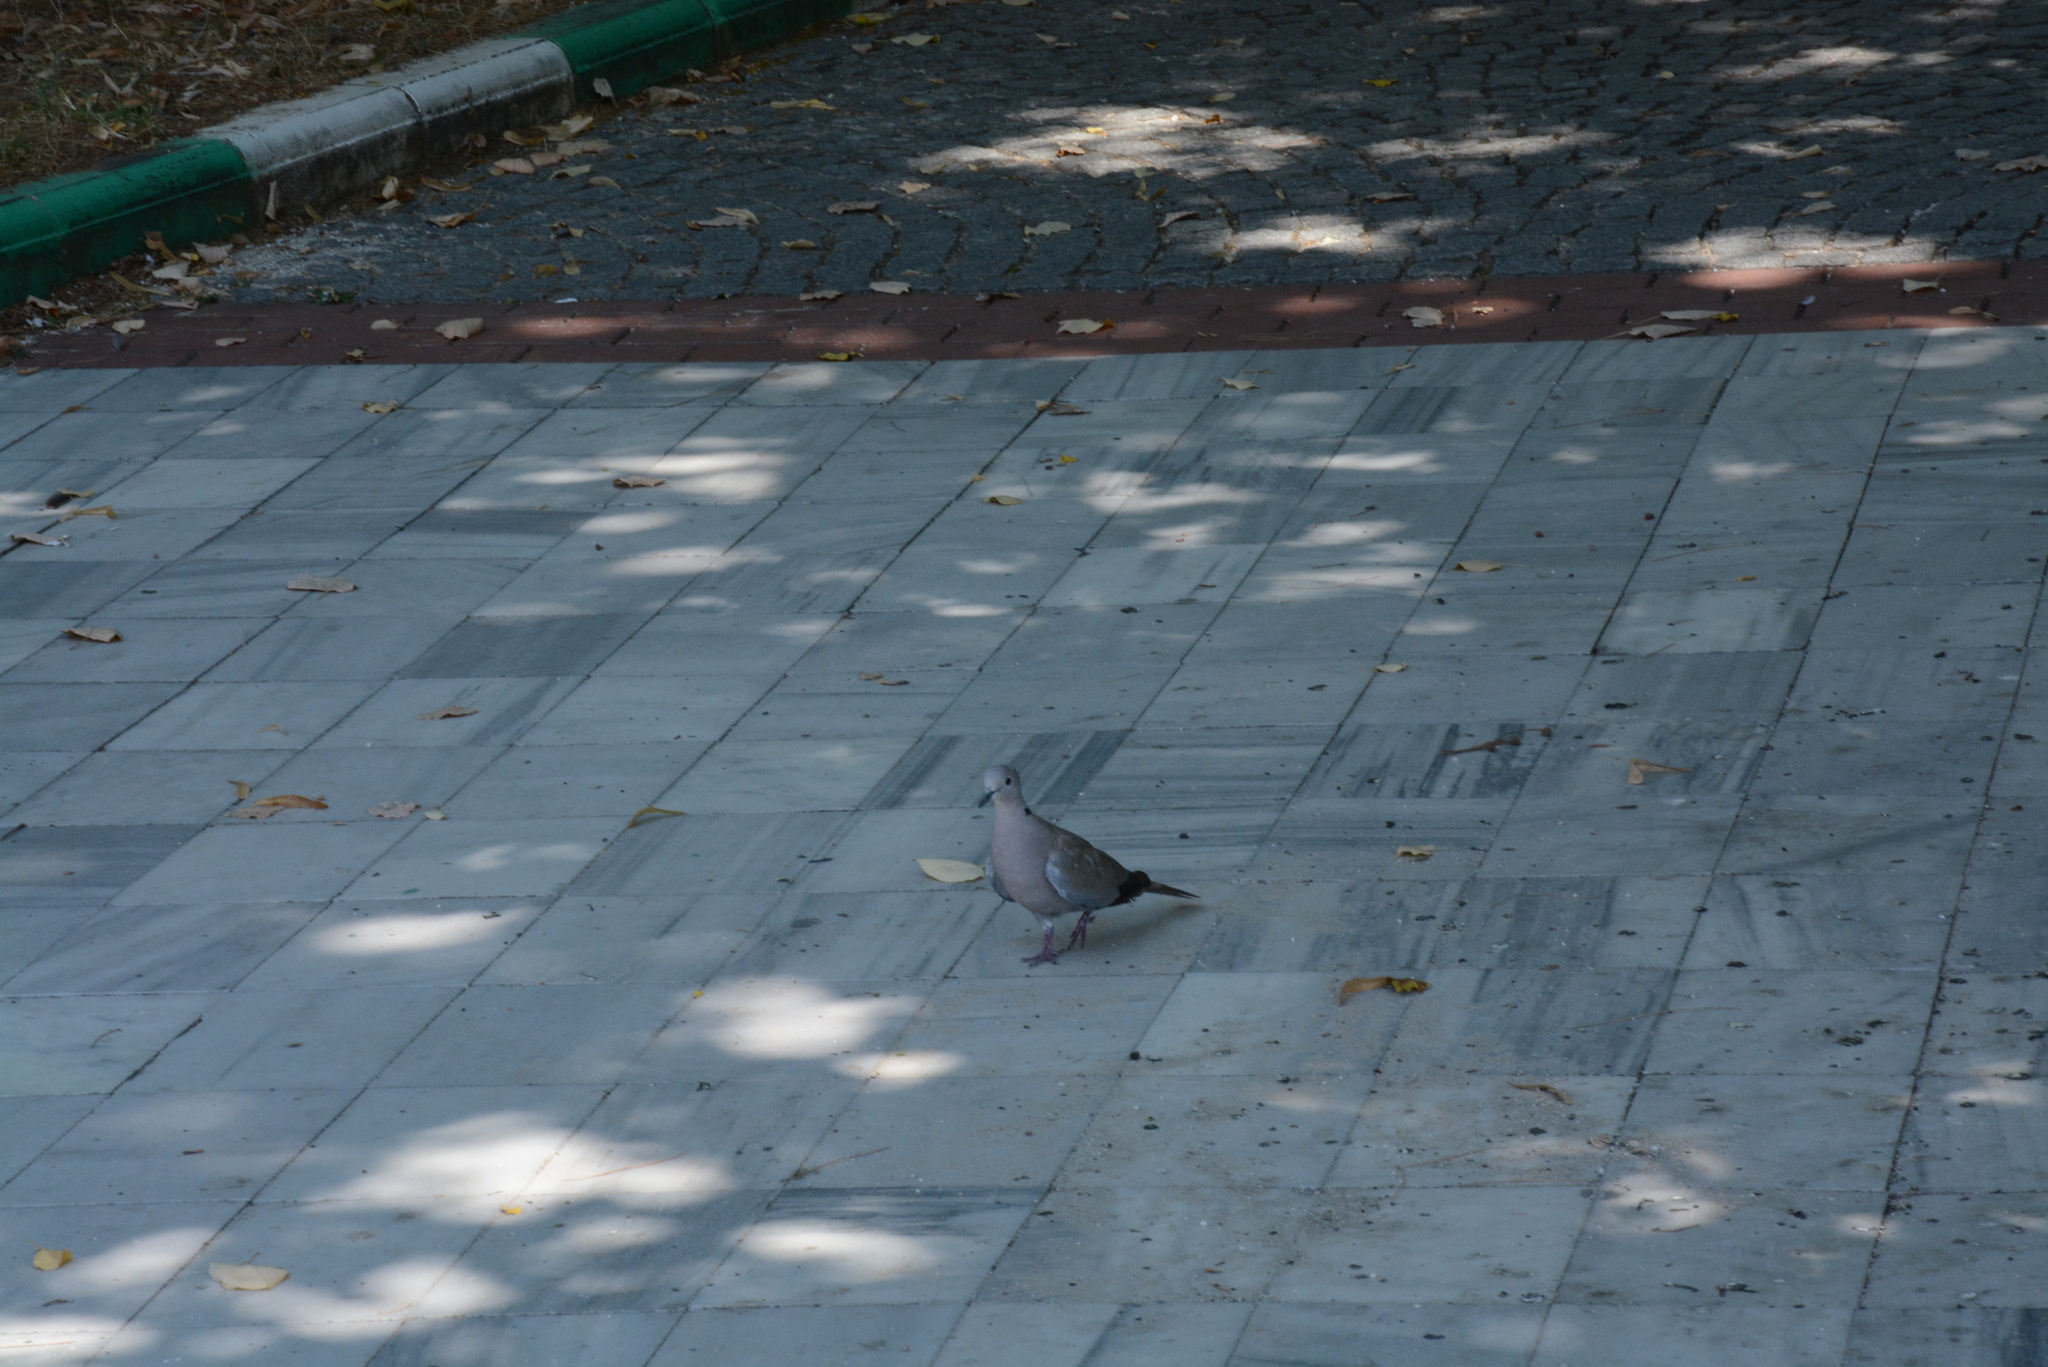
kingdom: Animalia
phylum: Chordata
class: Aves
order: Columbiformes
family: Columbidae
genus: Streptopelia
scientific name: Streptopelia decaocto
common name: Eurasian collared dove
